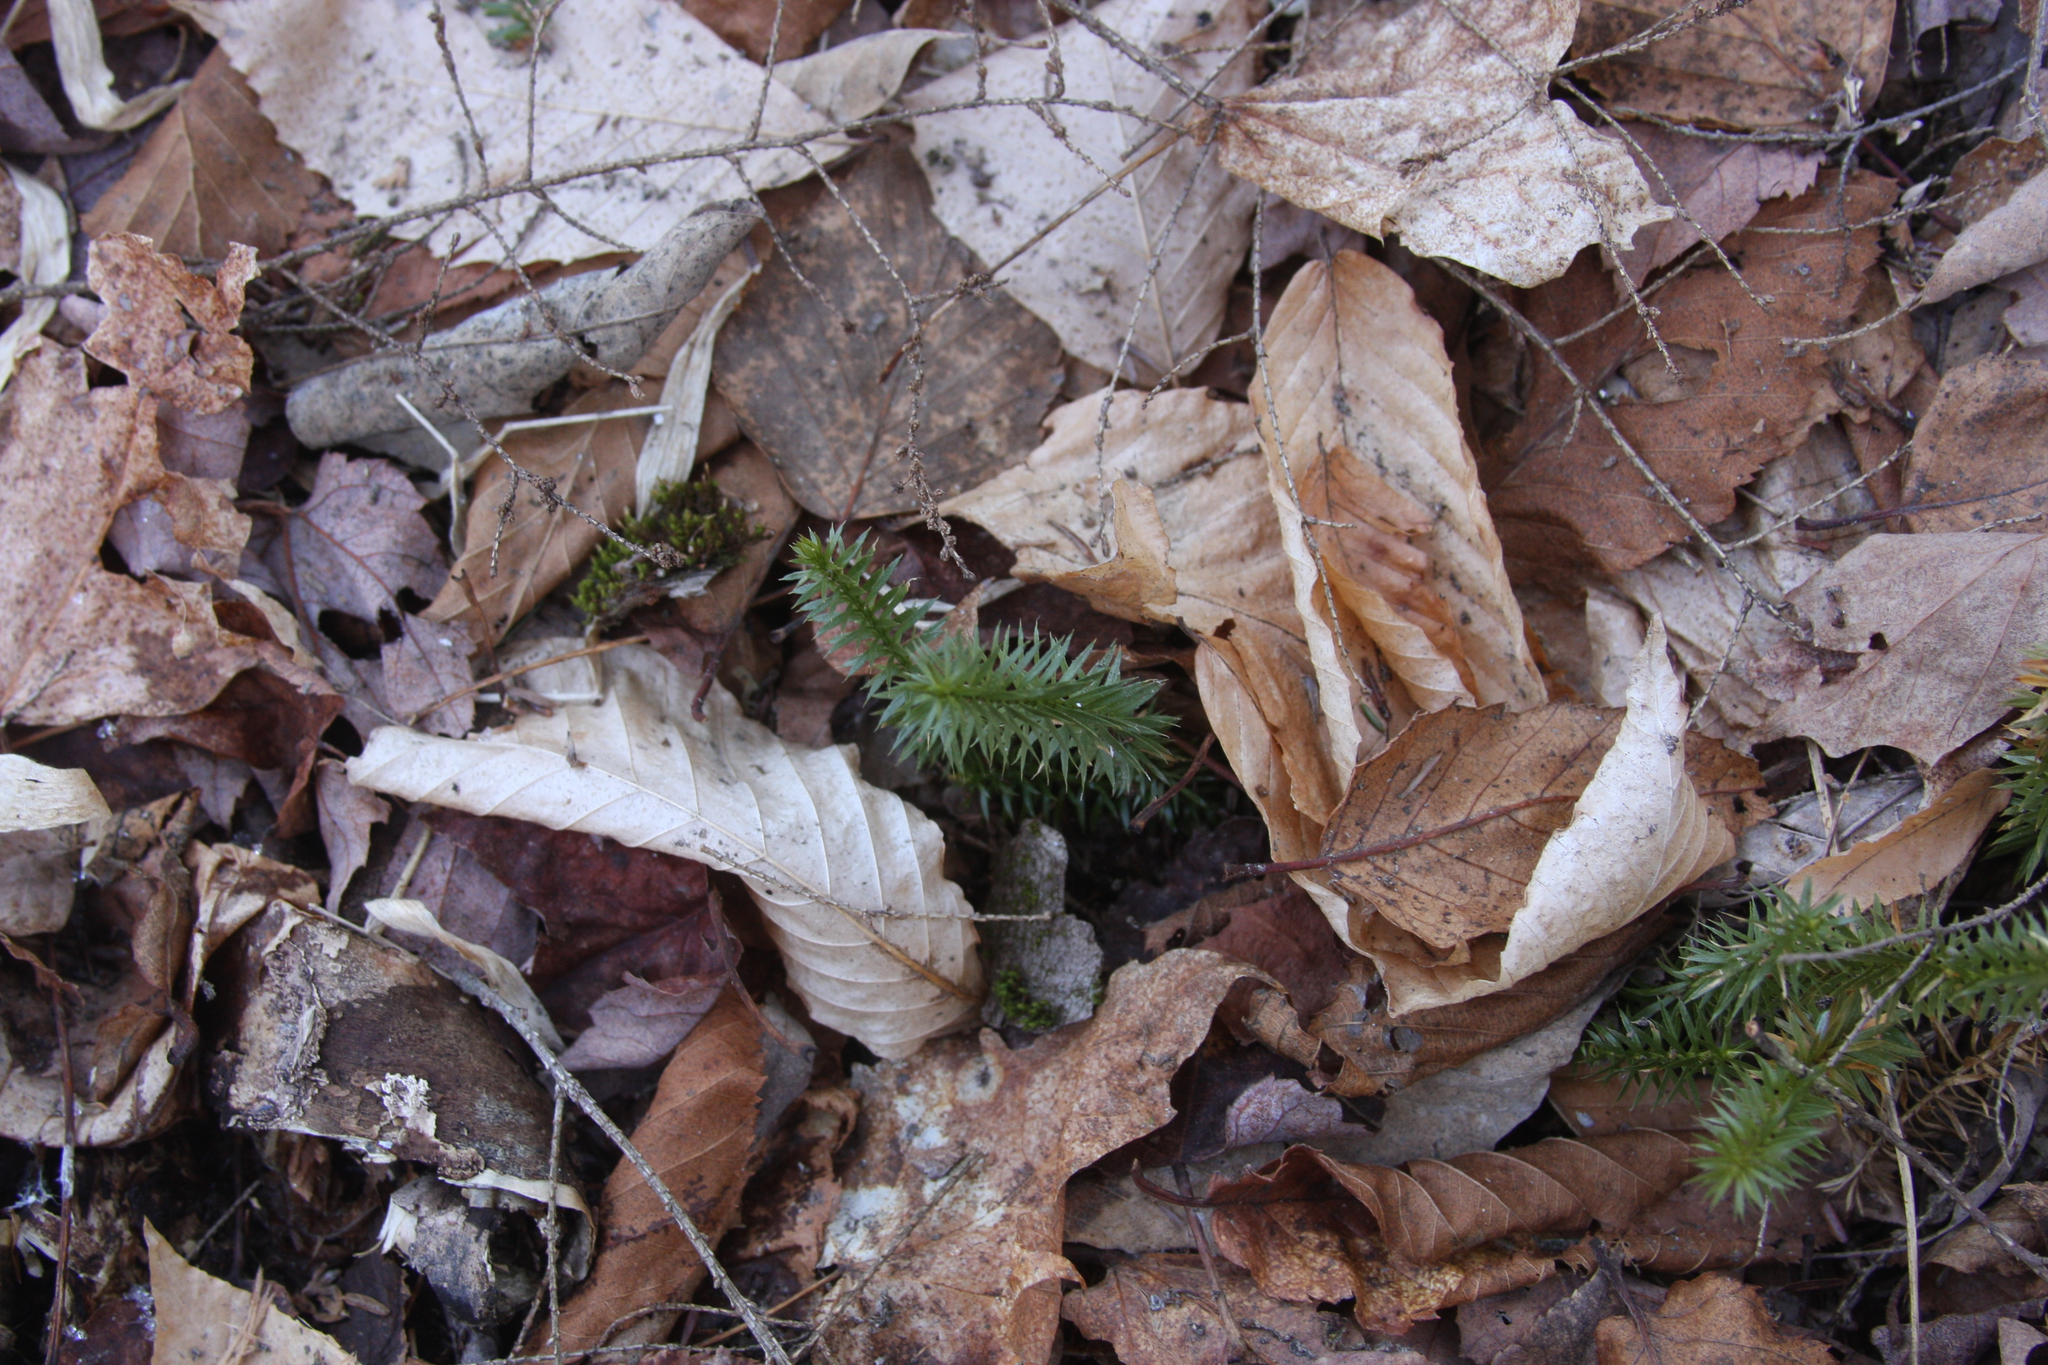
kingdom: Plantae
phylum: Tracheophyta
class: Lycopodiopsida
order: Lycopodiales
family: Lycopodiaceae
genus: Huperzia
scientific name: Huperzia lucidula
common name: Shining clubmoss
